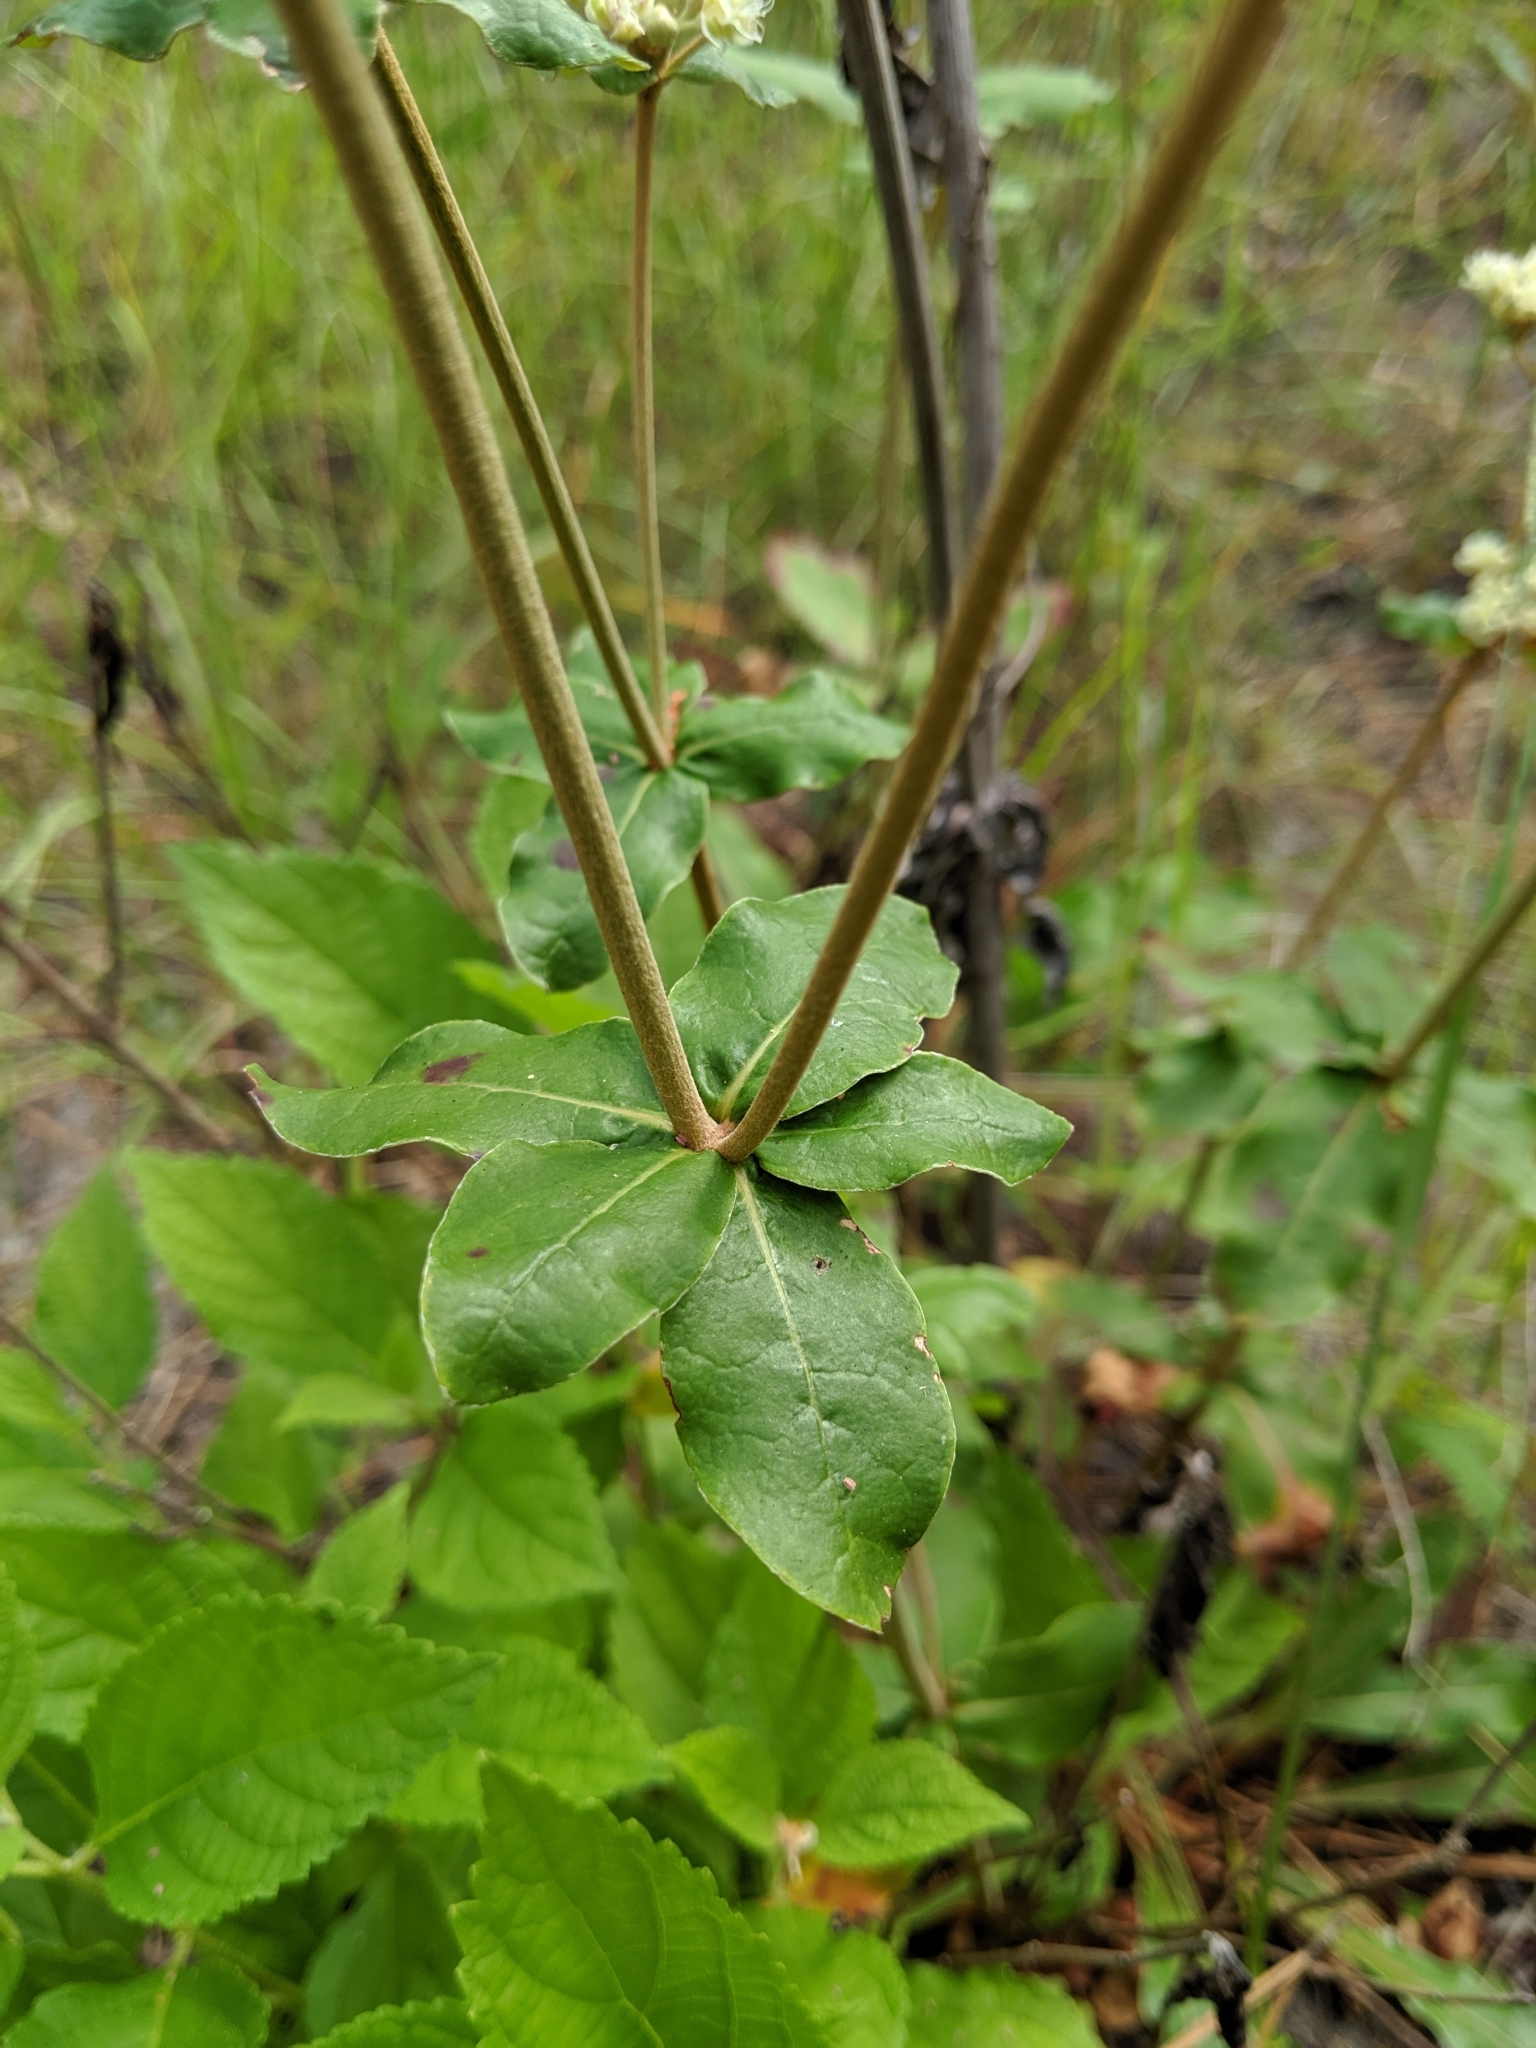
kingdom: Plantae
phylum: Tracheophyta
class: Magnoliopsida
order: Caryophyllales
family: Polygonaceae
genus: Eriogonum
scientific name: Eriogonum tomentosum
